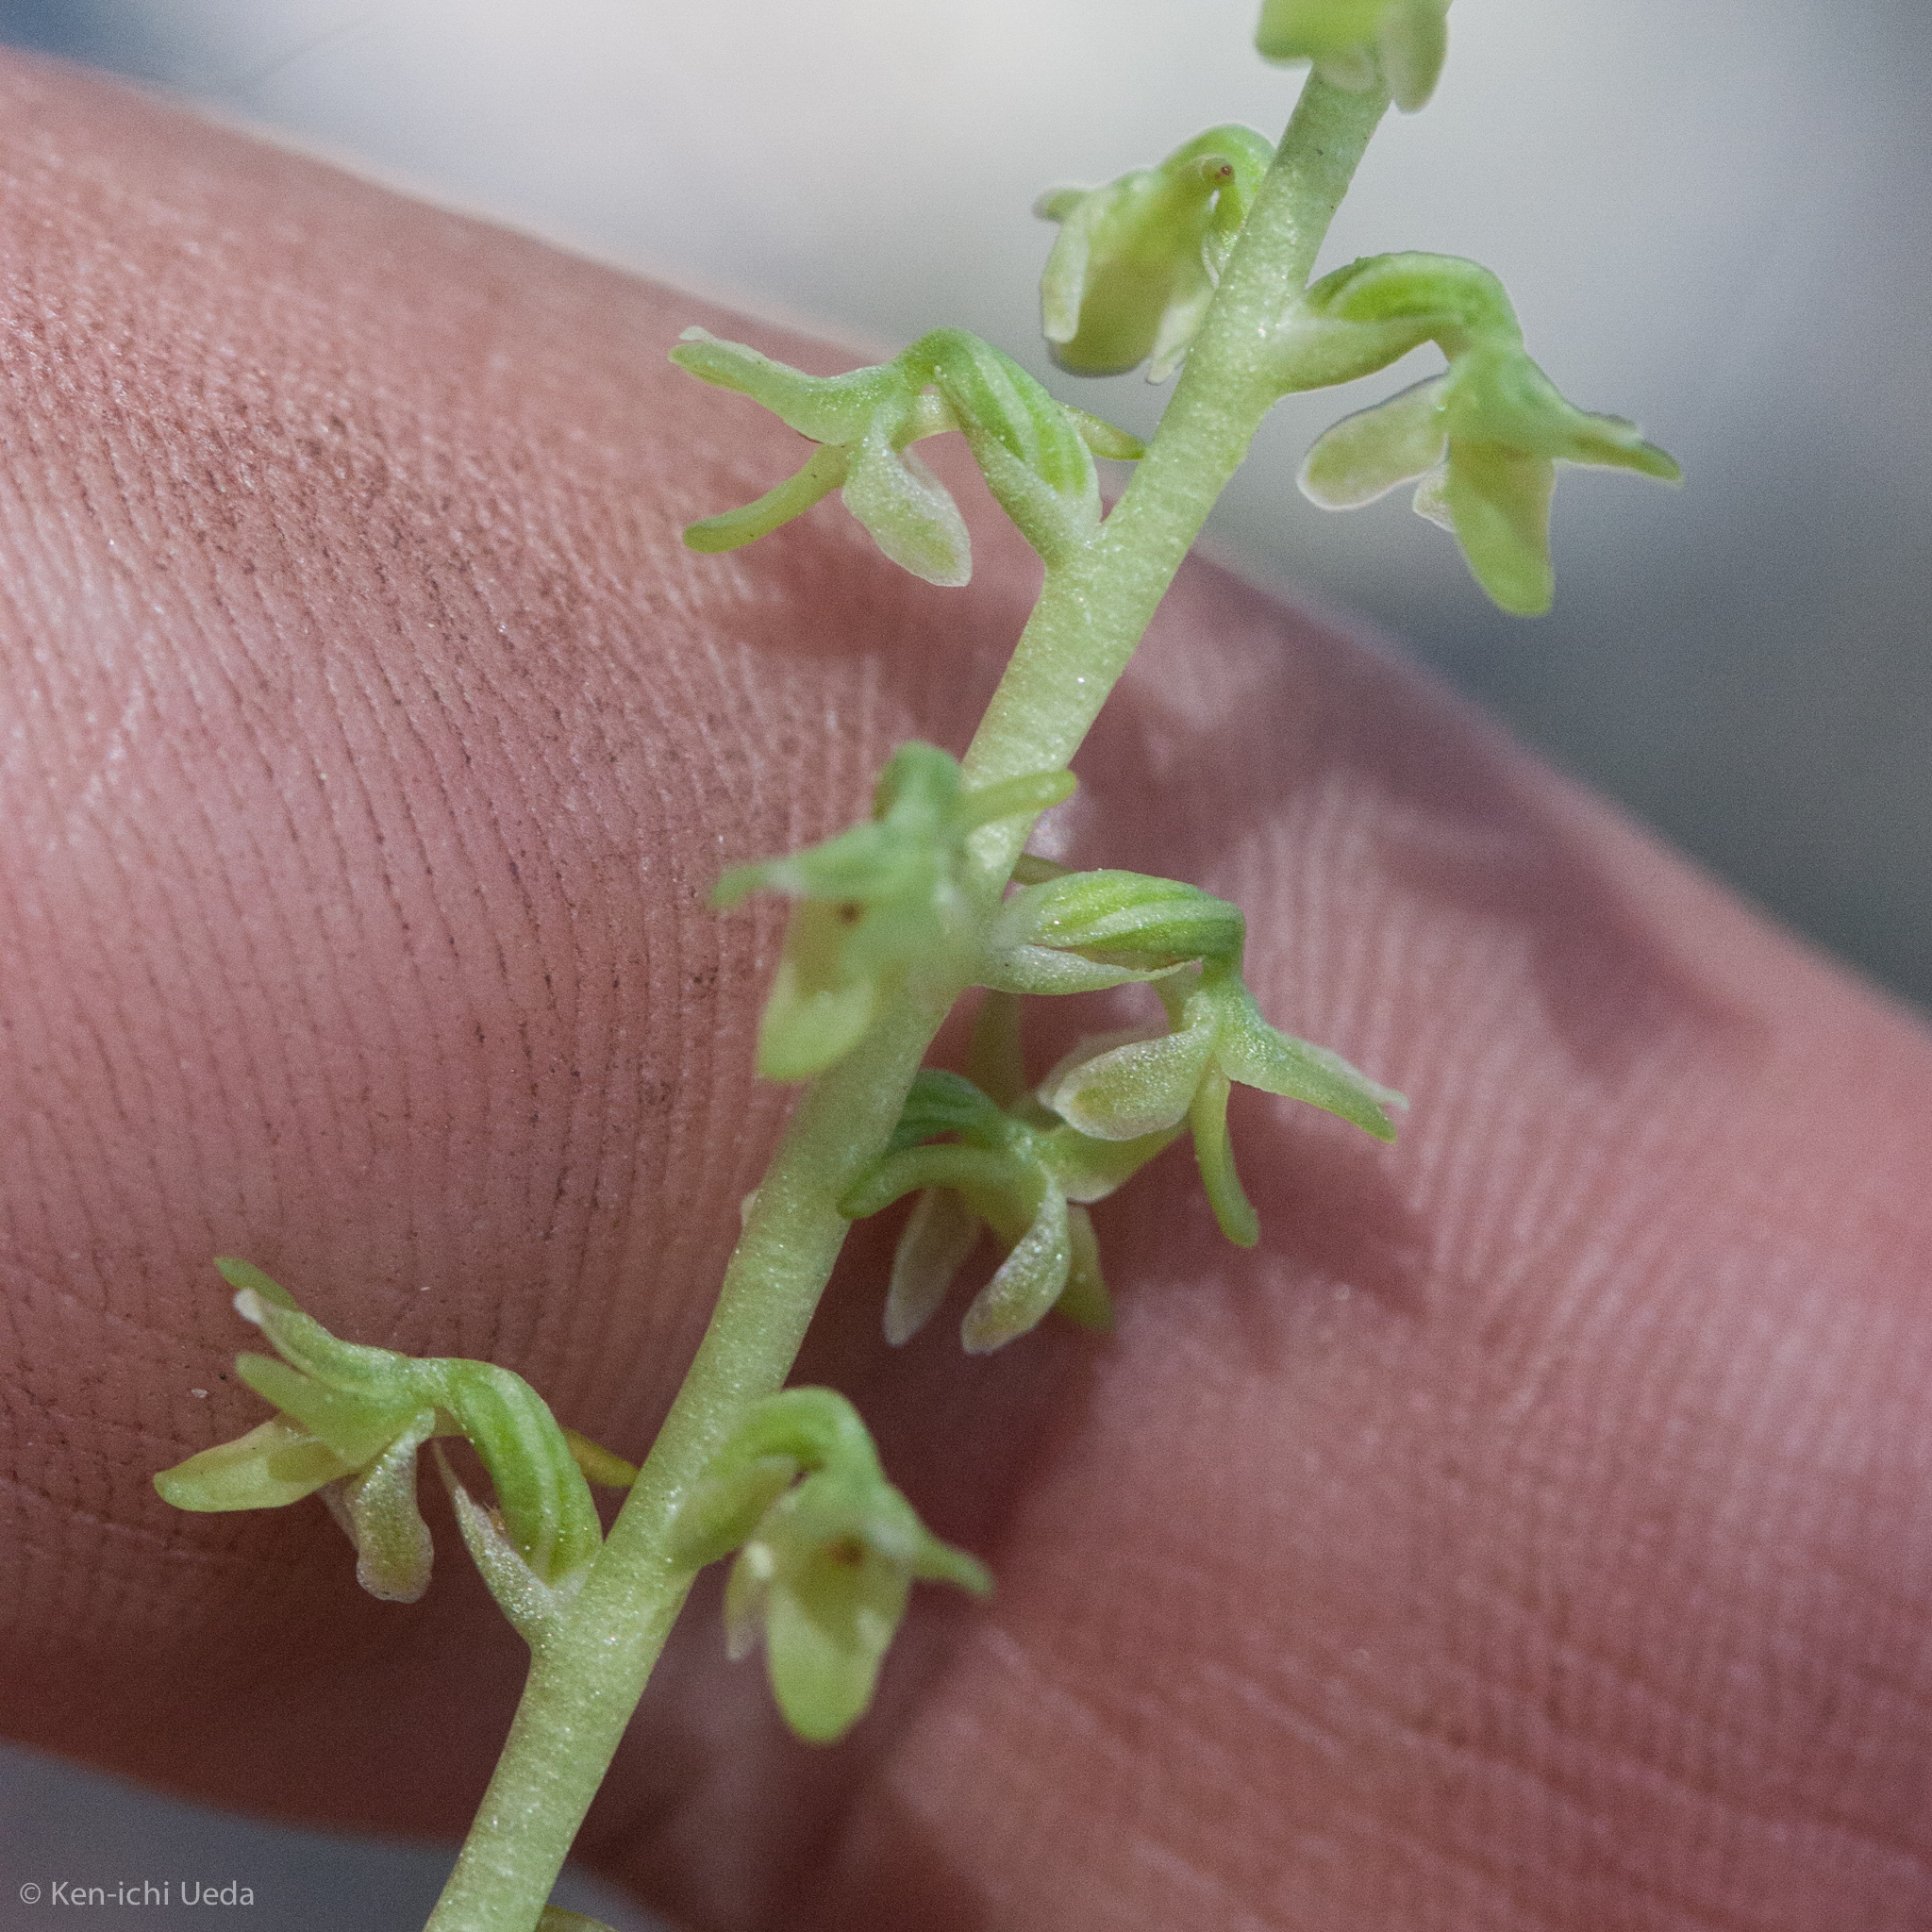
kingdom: Plantae
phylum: Tracheophyta
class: Liliopsida
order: Asparagales
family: Orchidaceae
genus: Platanthera
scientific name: Platanthera unalascensis
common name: Alaska bog orchid
